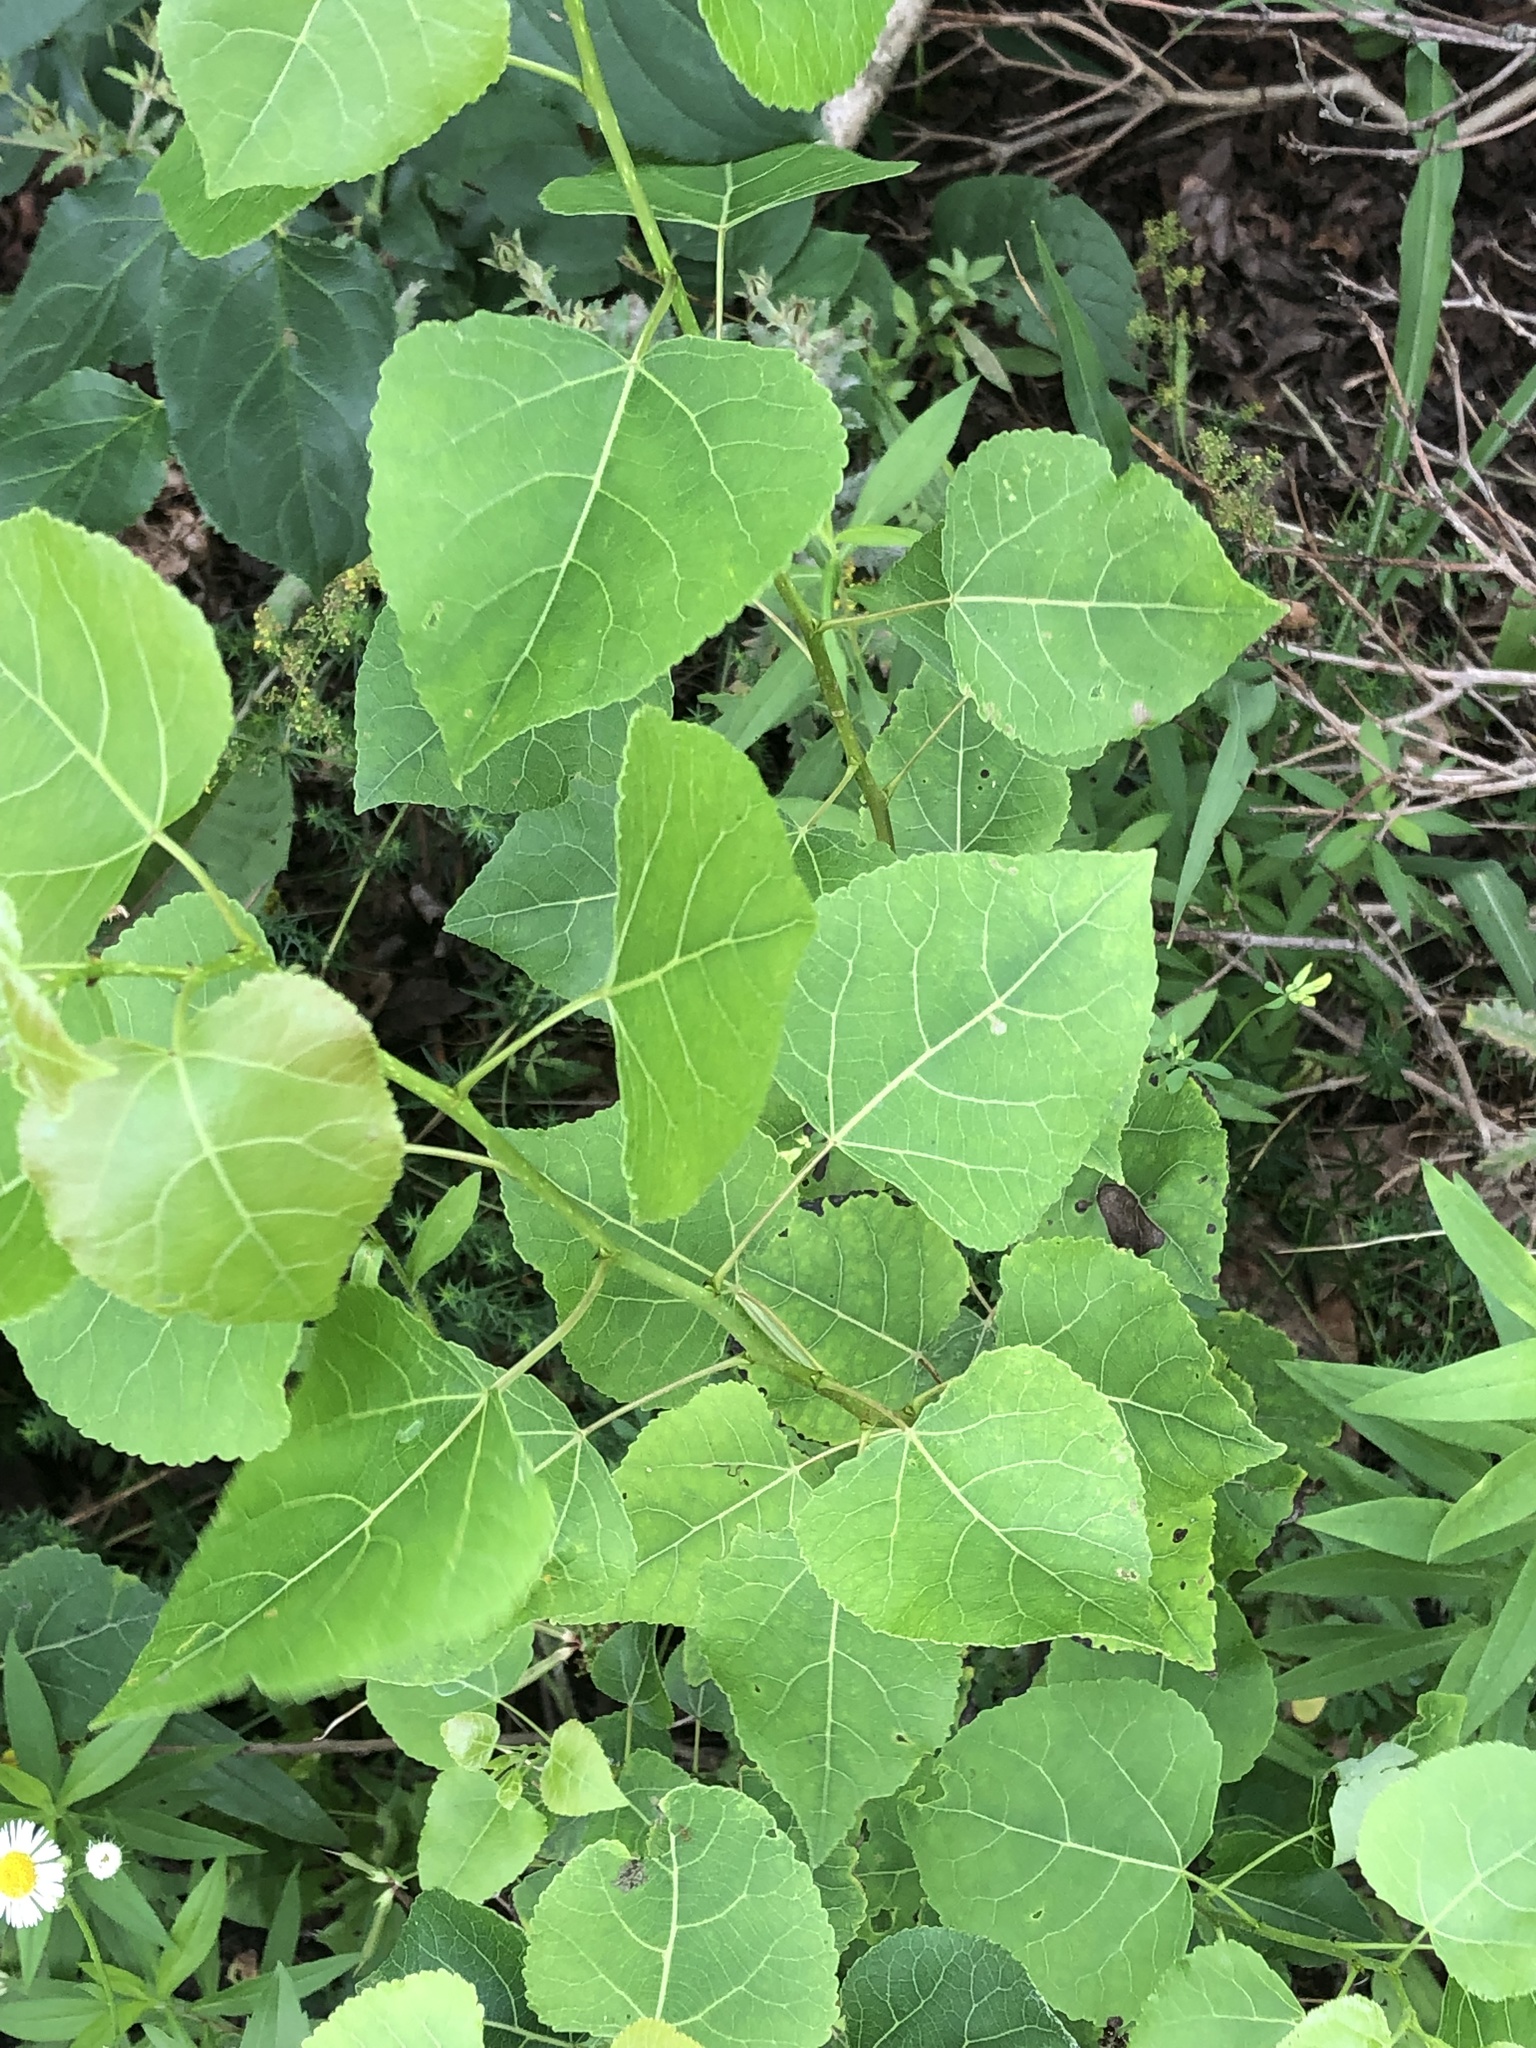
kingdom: Plantae
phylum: Tracheophyta
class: Magnoliopsida
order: Malpighiales
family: Salicaceae
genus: Populus
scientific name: Populus deltoides
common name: Eastern cottonwood
